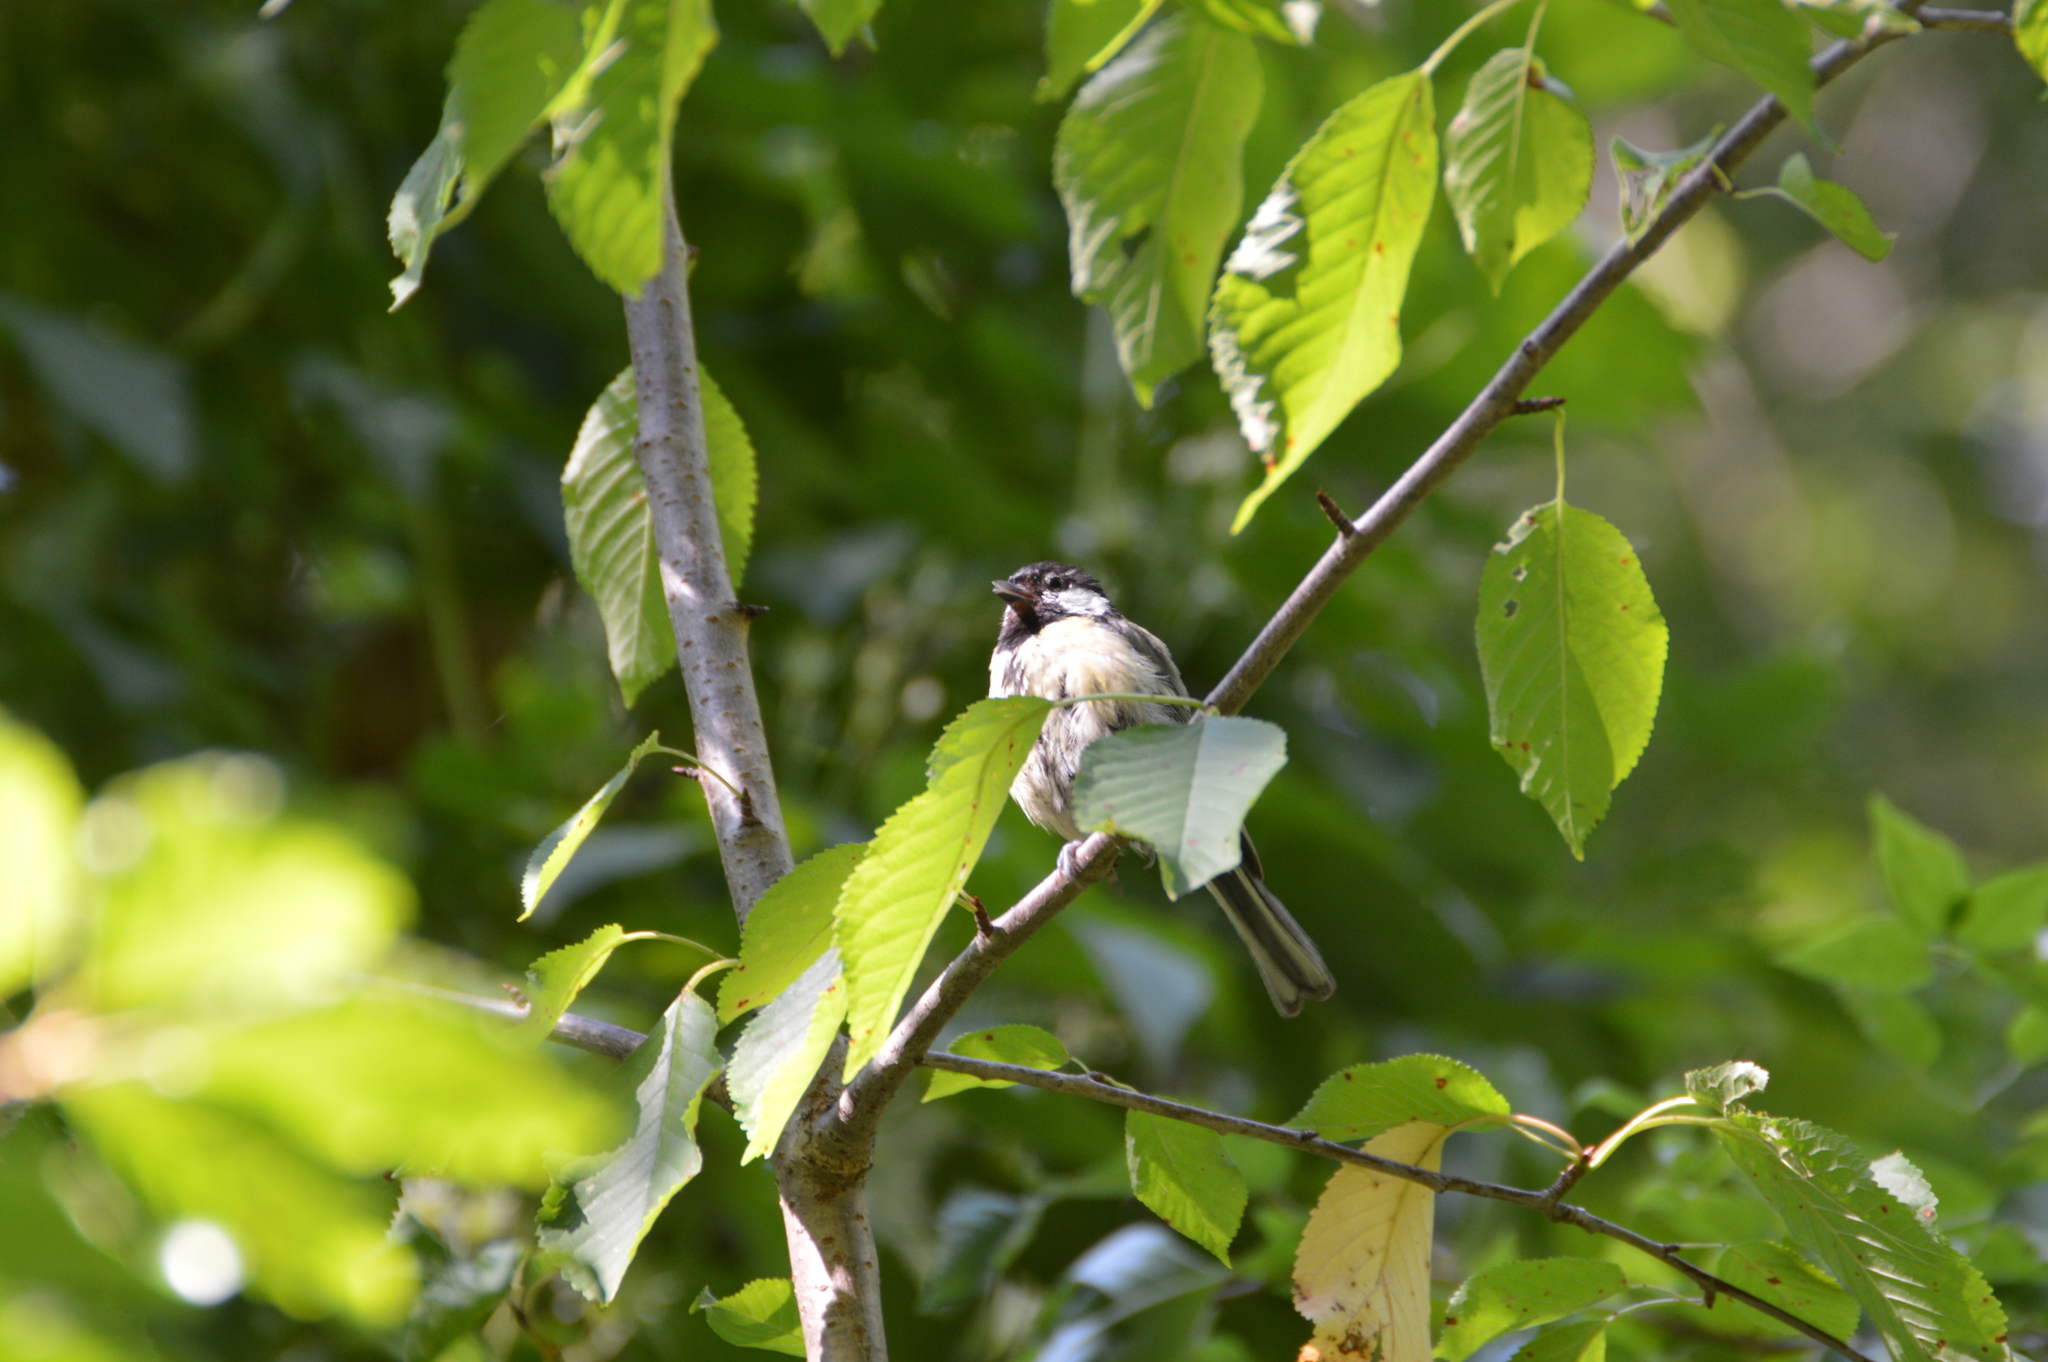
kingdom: Animalia
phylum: Chordata
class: Aves
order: Passeriformes
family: Paridae
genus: Parus
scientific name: Parus major
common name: Great tit
